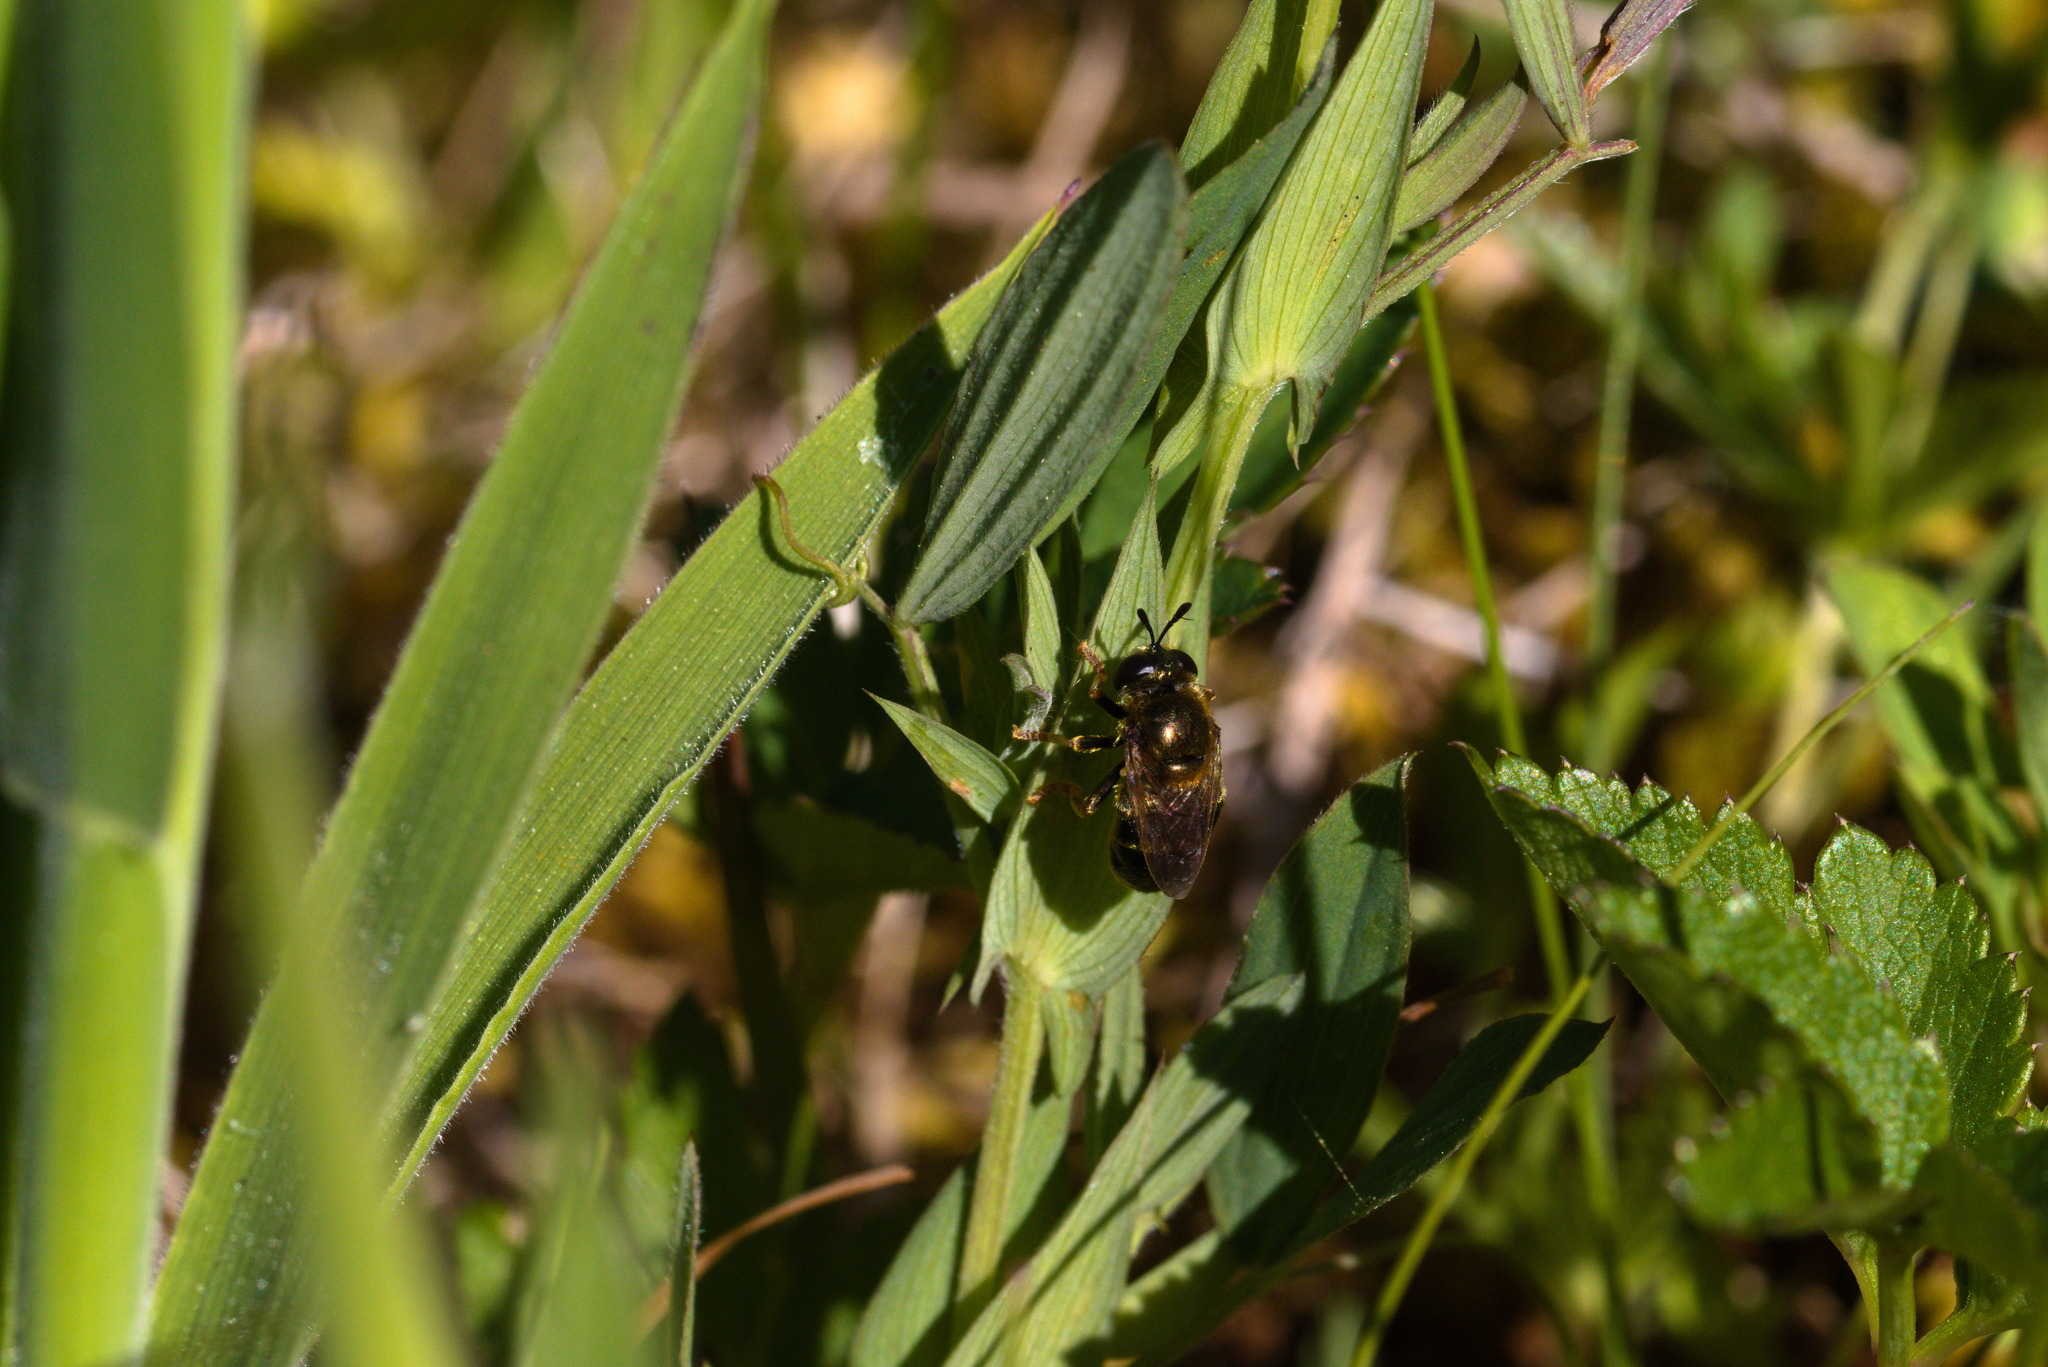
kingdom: Animalia
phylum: Arthropoda
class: Insecta
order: Diptera
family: Syrphidae
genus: Microdon
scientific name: Microdon myrmicae
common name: Bog ant fly
